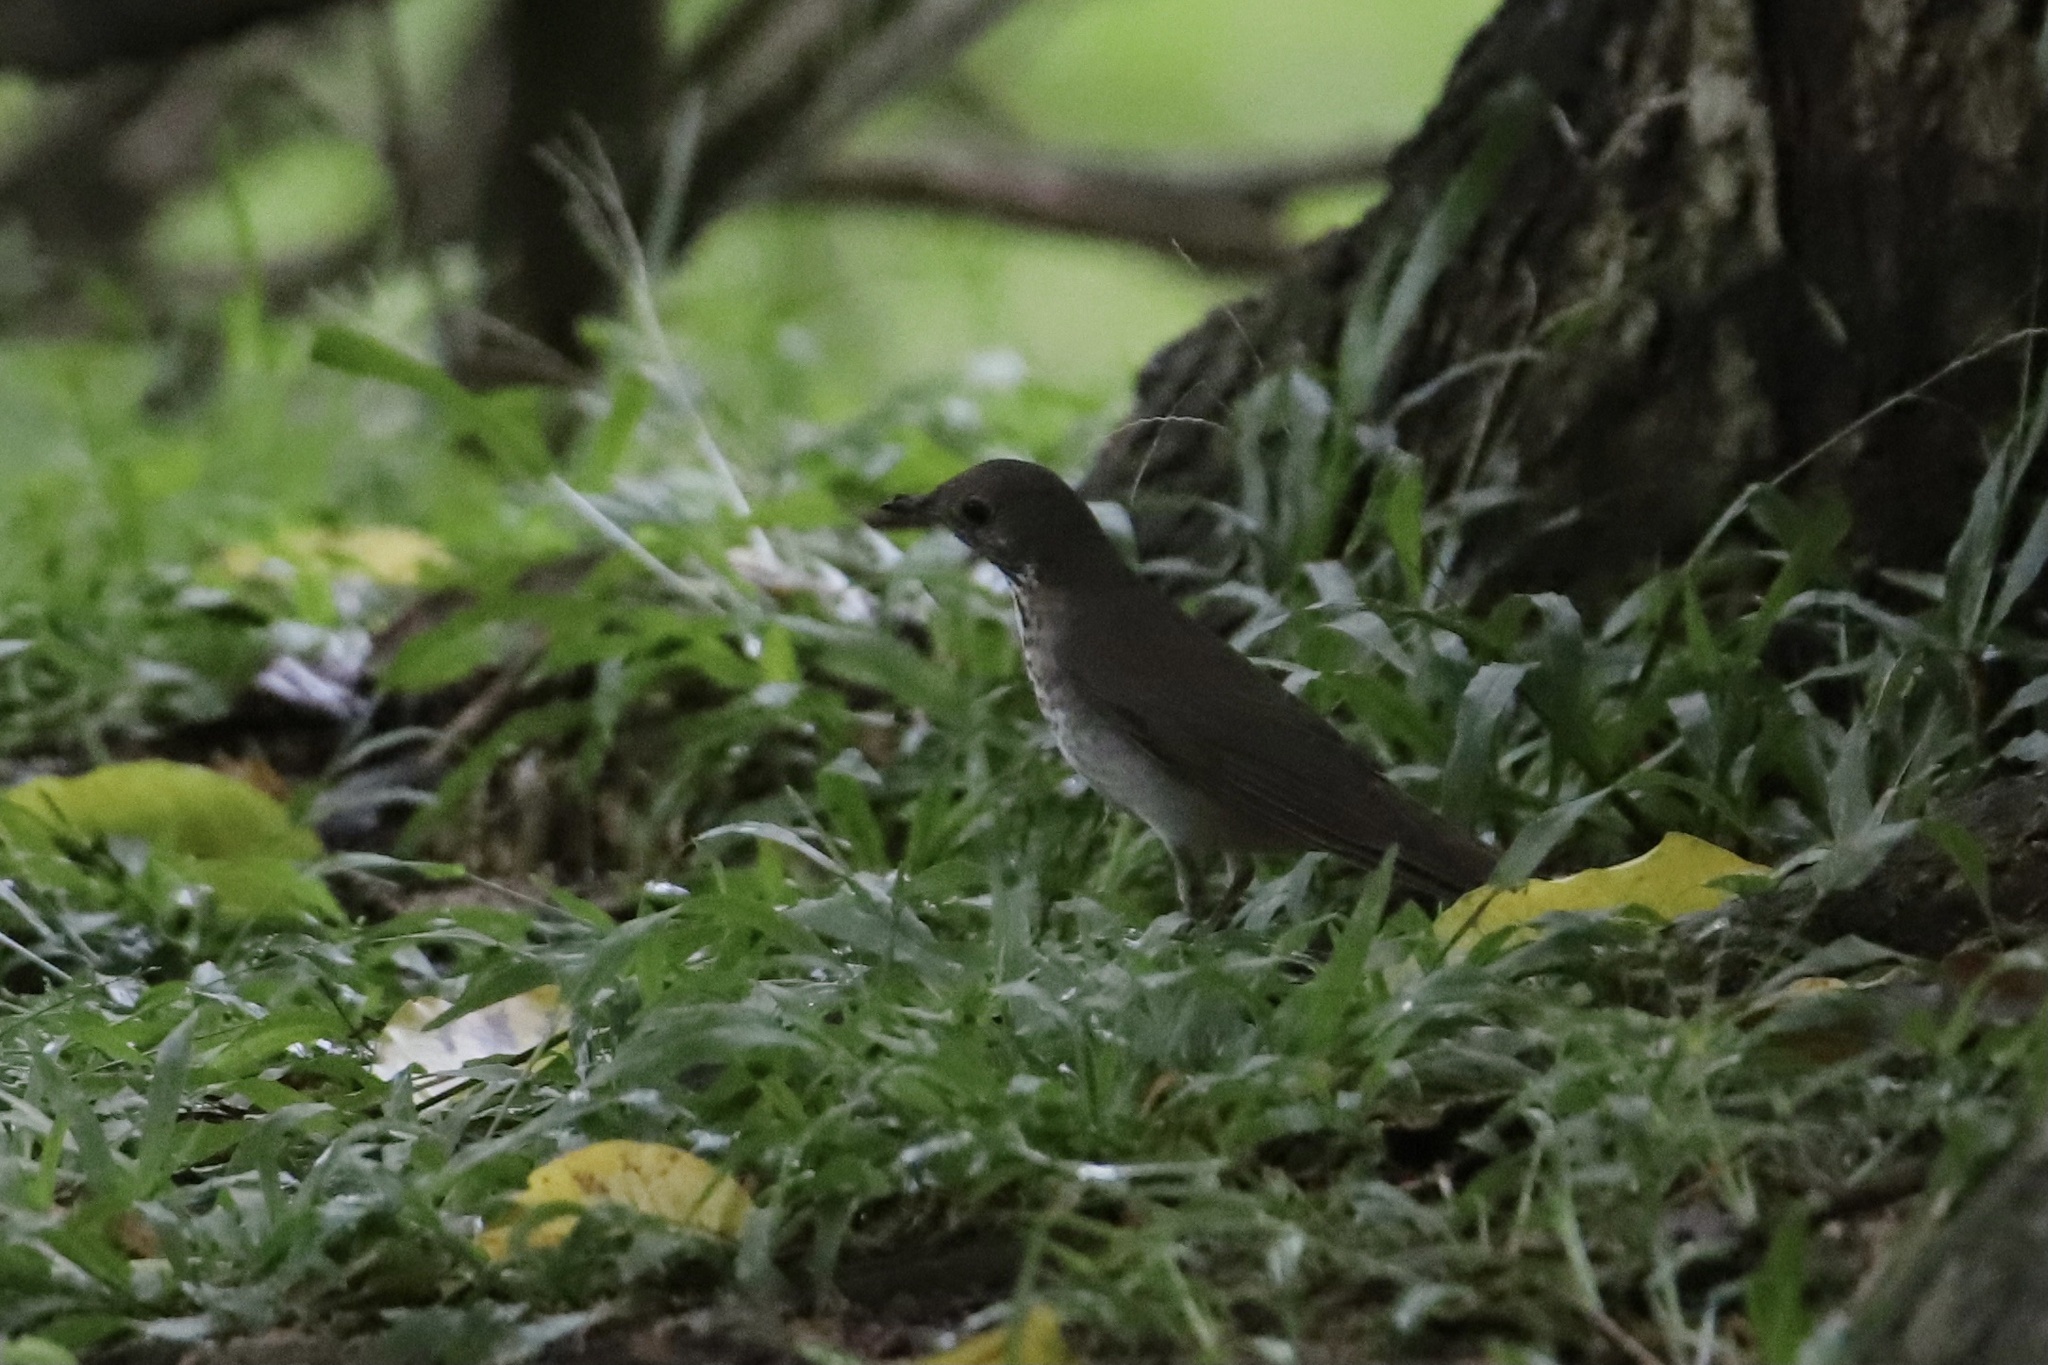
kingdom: Animalia
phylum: Chordata
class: Aves
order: Passeriformes
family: Turdidae
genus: Catharus
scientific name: Catharus minimus
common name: Grey-cheeked thrush
